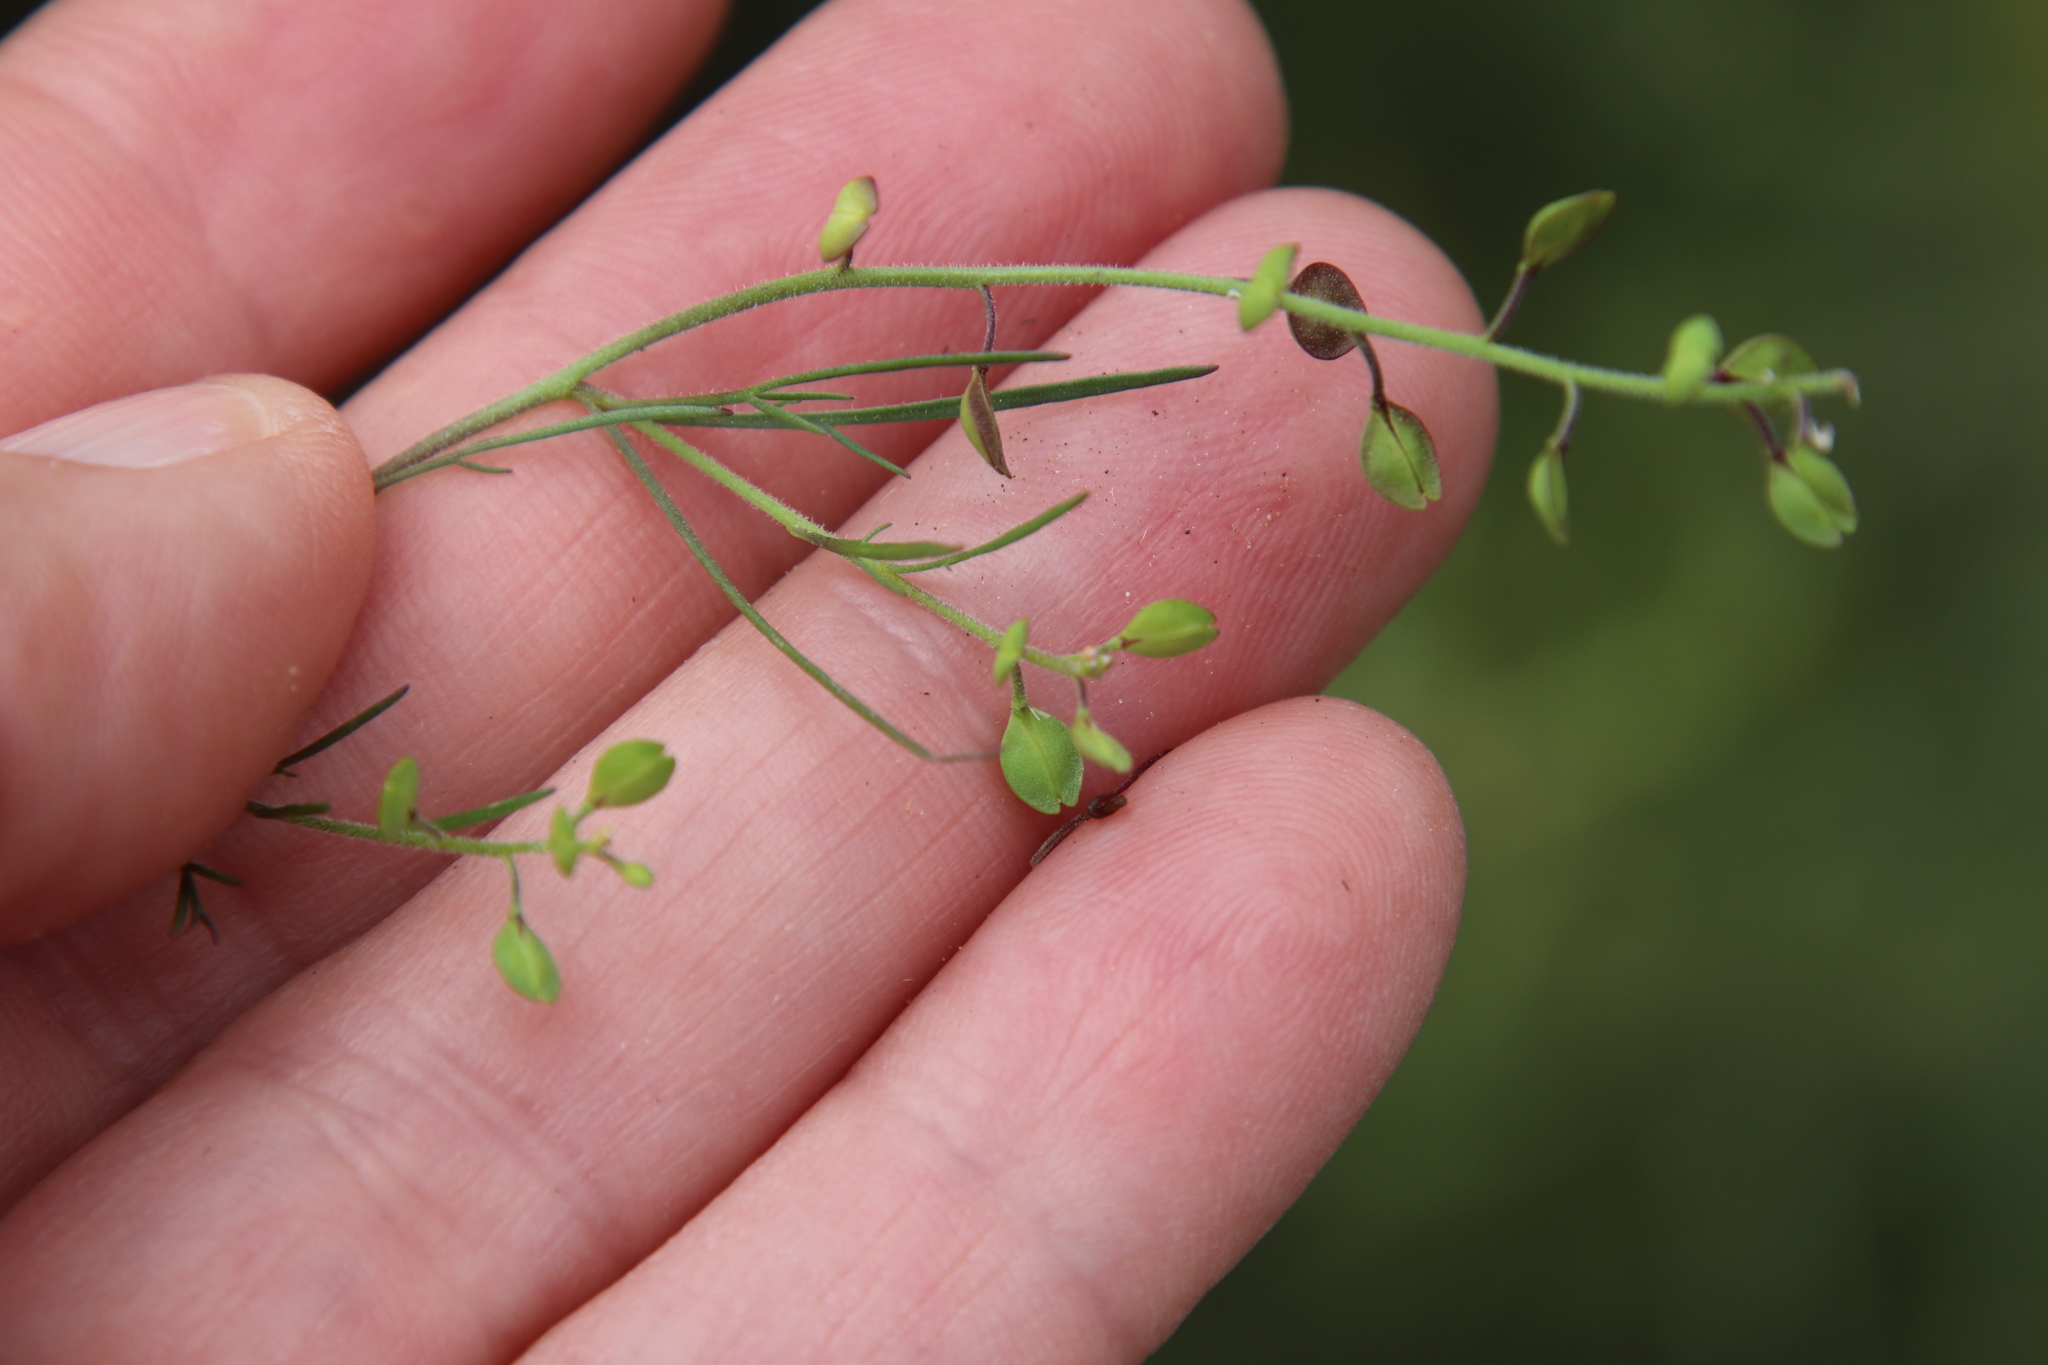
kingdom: Plantae
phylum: Tracheophyta
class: Magnoliopsida
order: Brassicales
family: Brassicaceae
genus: Lepidium
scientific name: Lepidium nitidum
